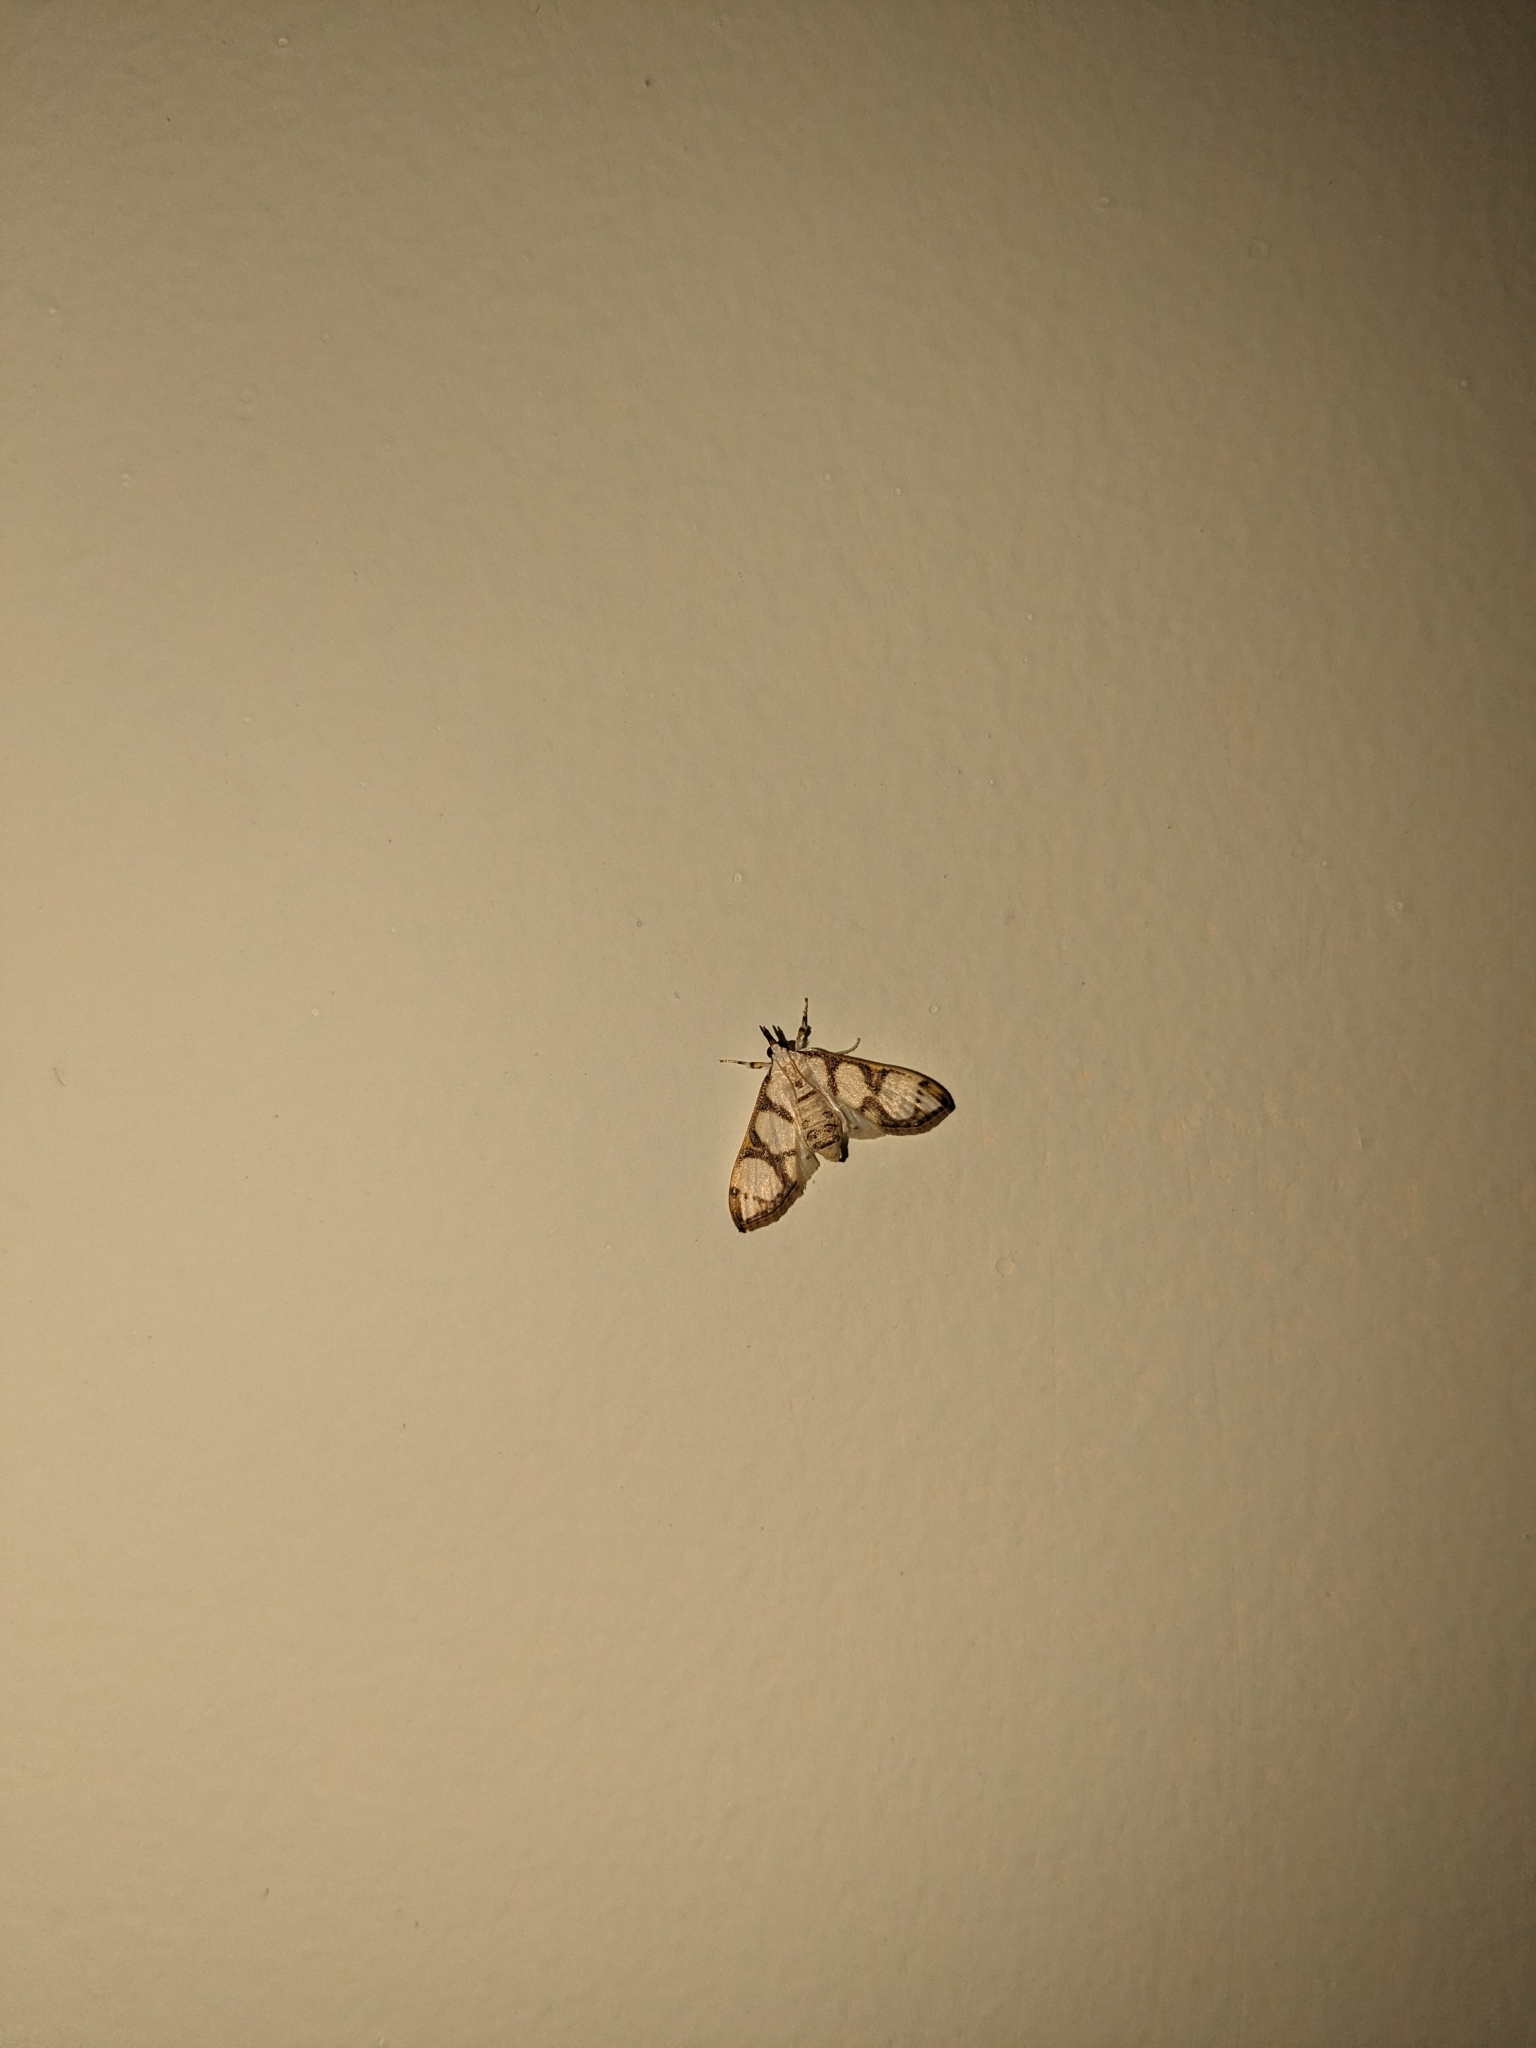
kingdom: Animalia
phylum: Arthropoda
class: Insecta
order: Lepidoptera
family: Crambidae
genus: Cirrhochrista
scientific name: Cirrhochrista fumipalpis
